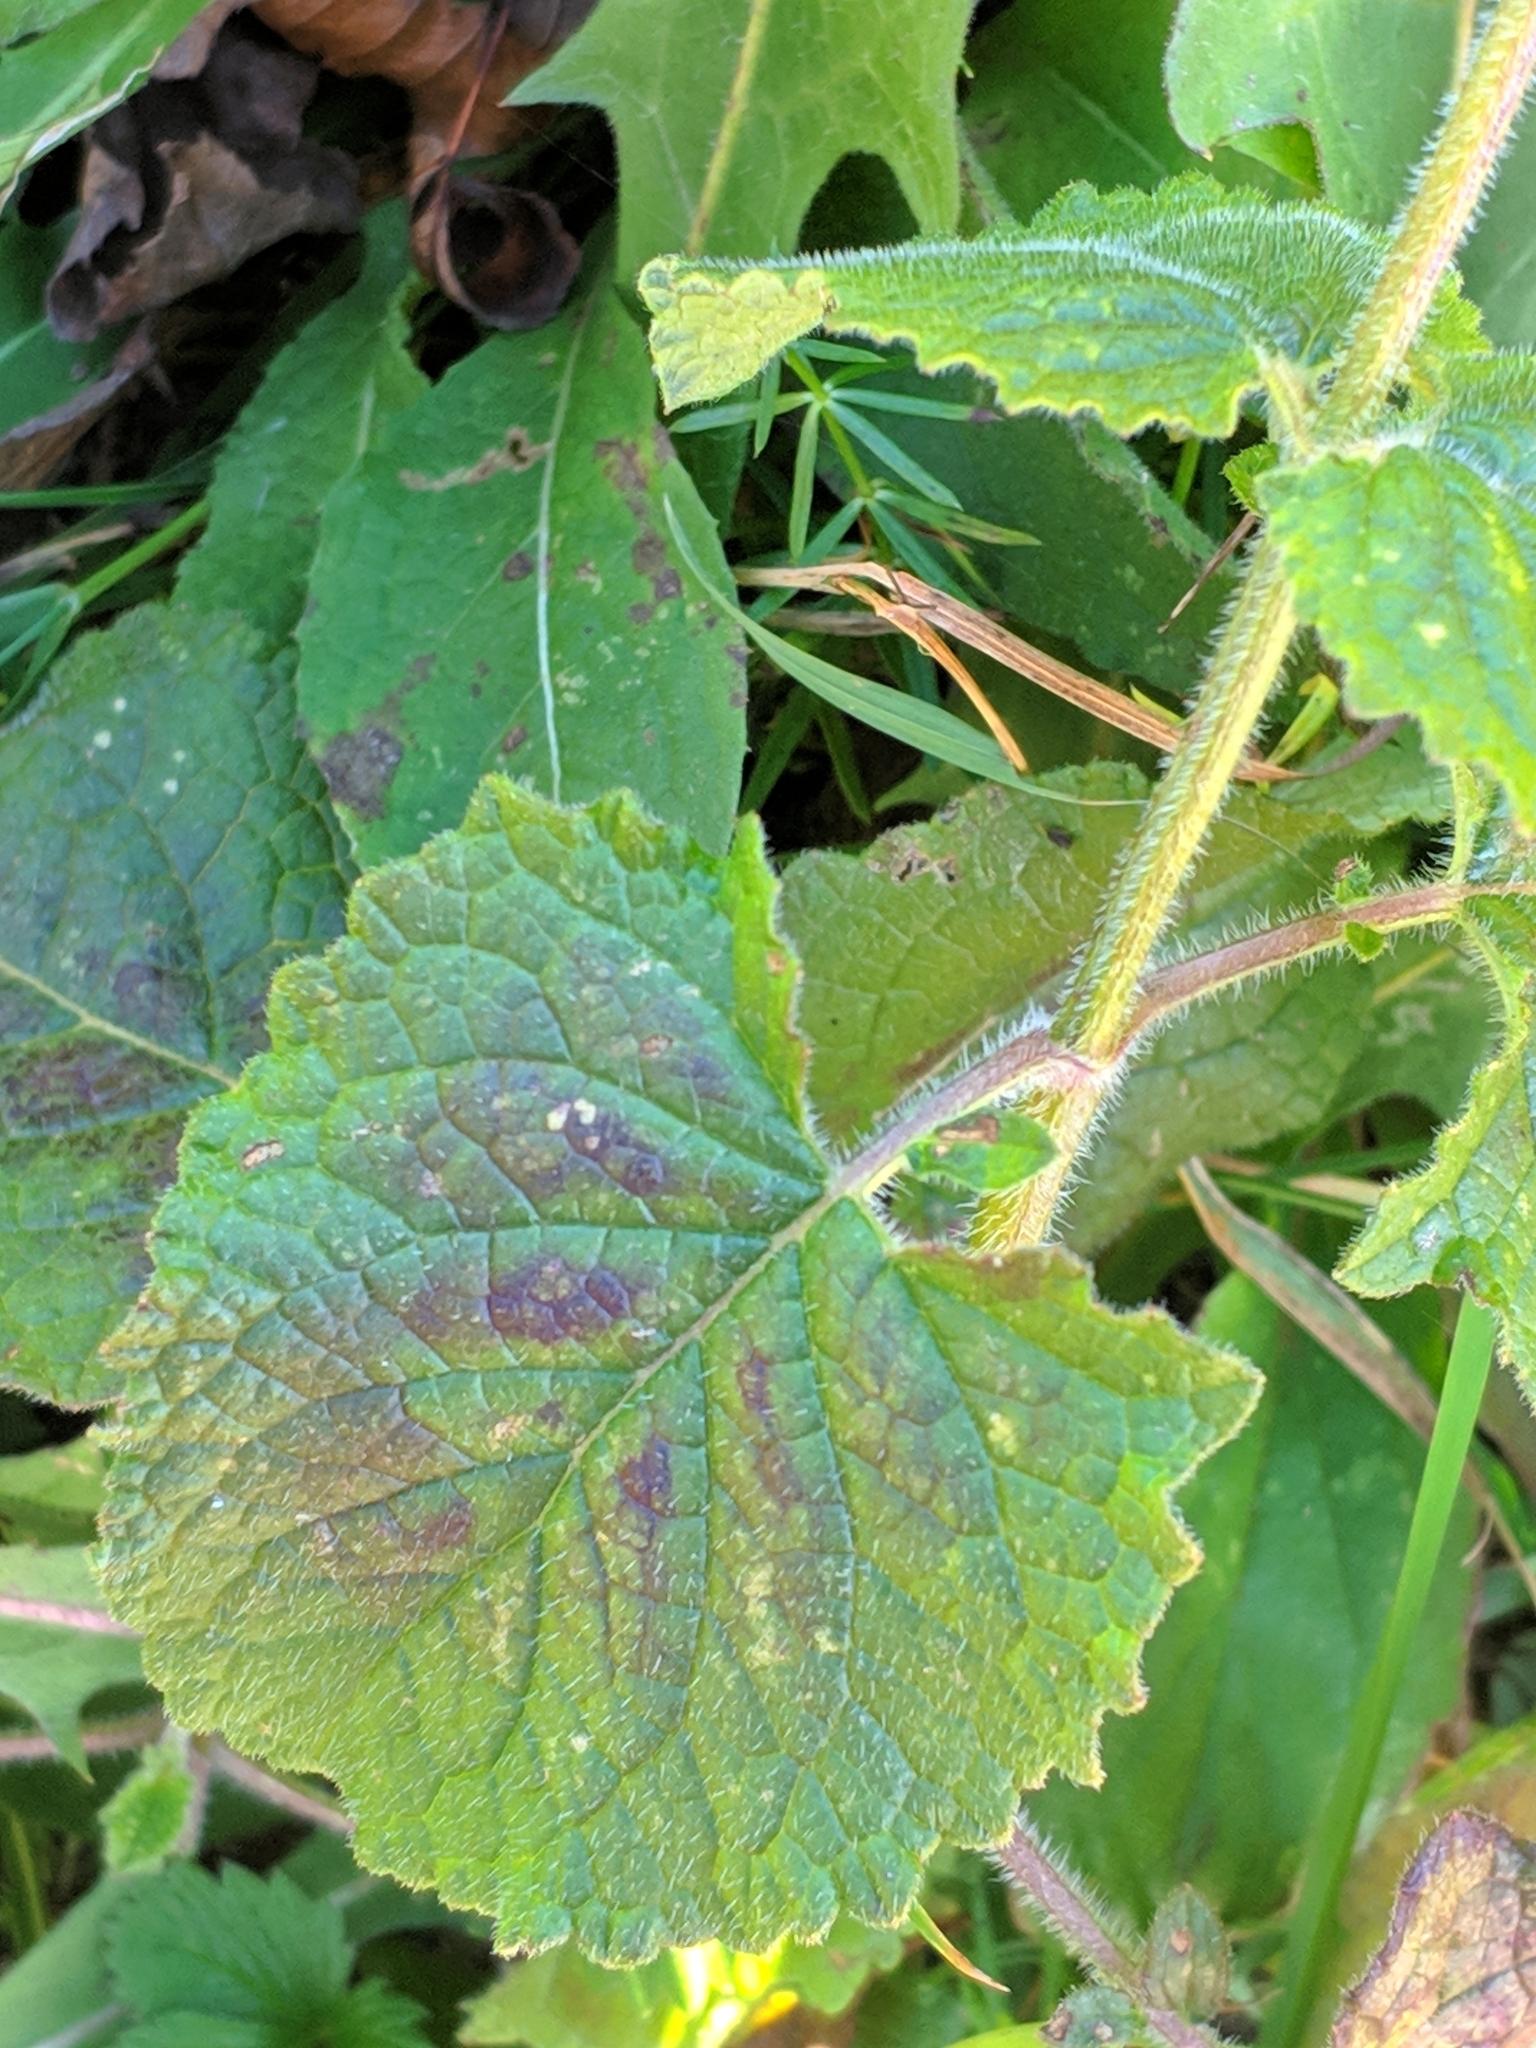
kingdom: Plantae
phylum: Tracheophyta
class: Magnoliopsida
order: Lamiales
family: Lamiaceae
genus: Salvia
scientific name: Salvia verticillata
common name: Whorled clary
